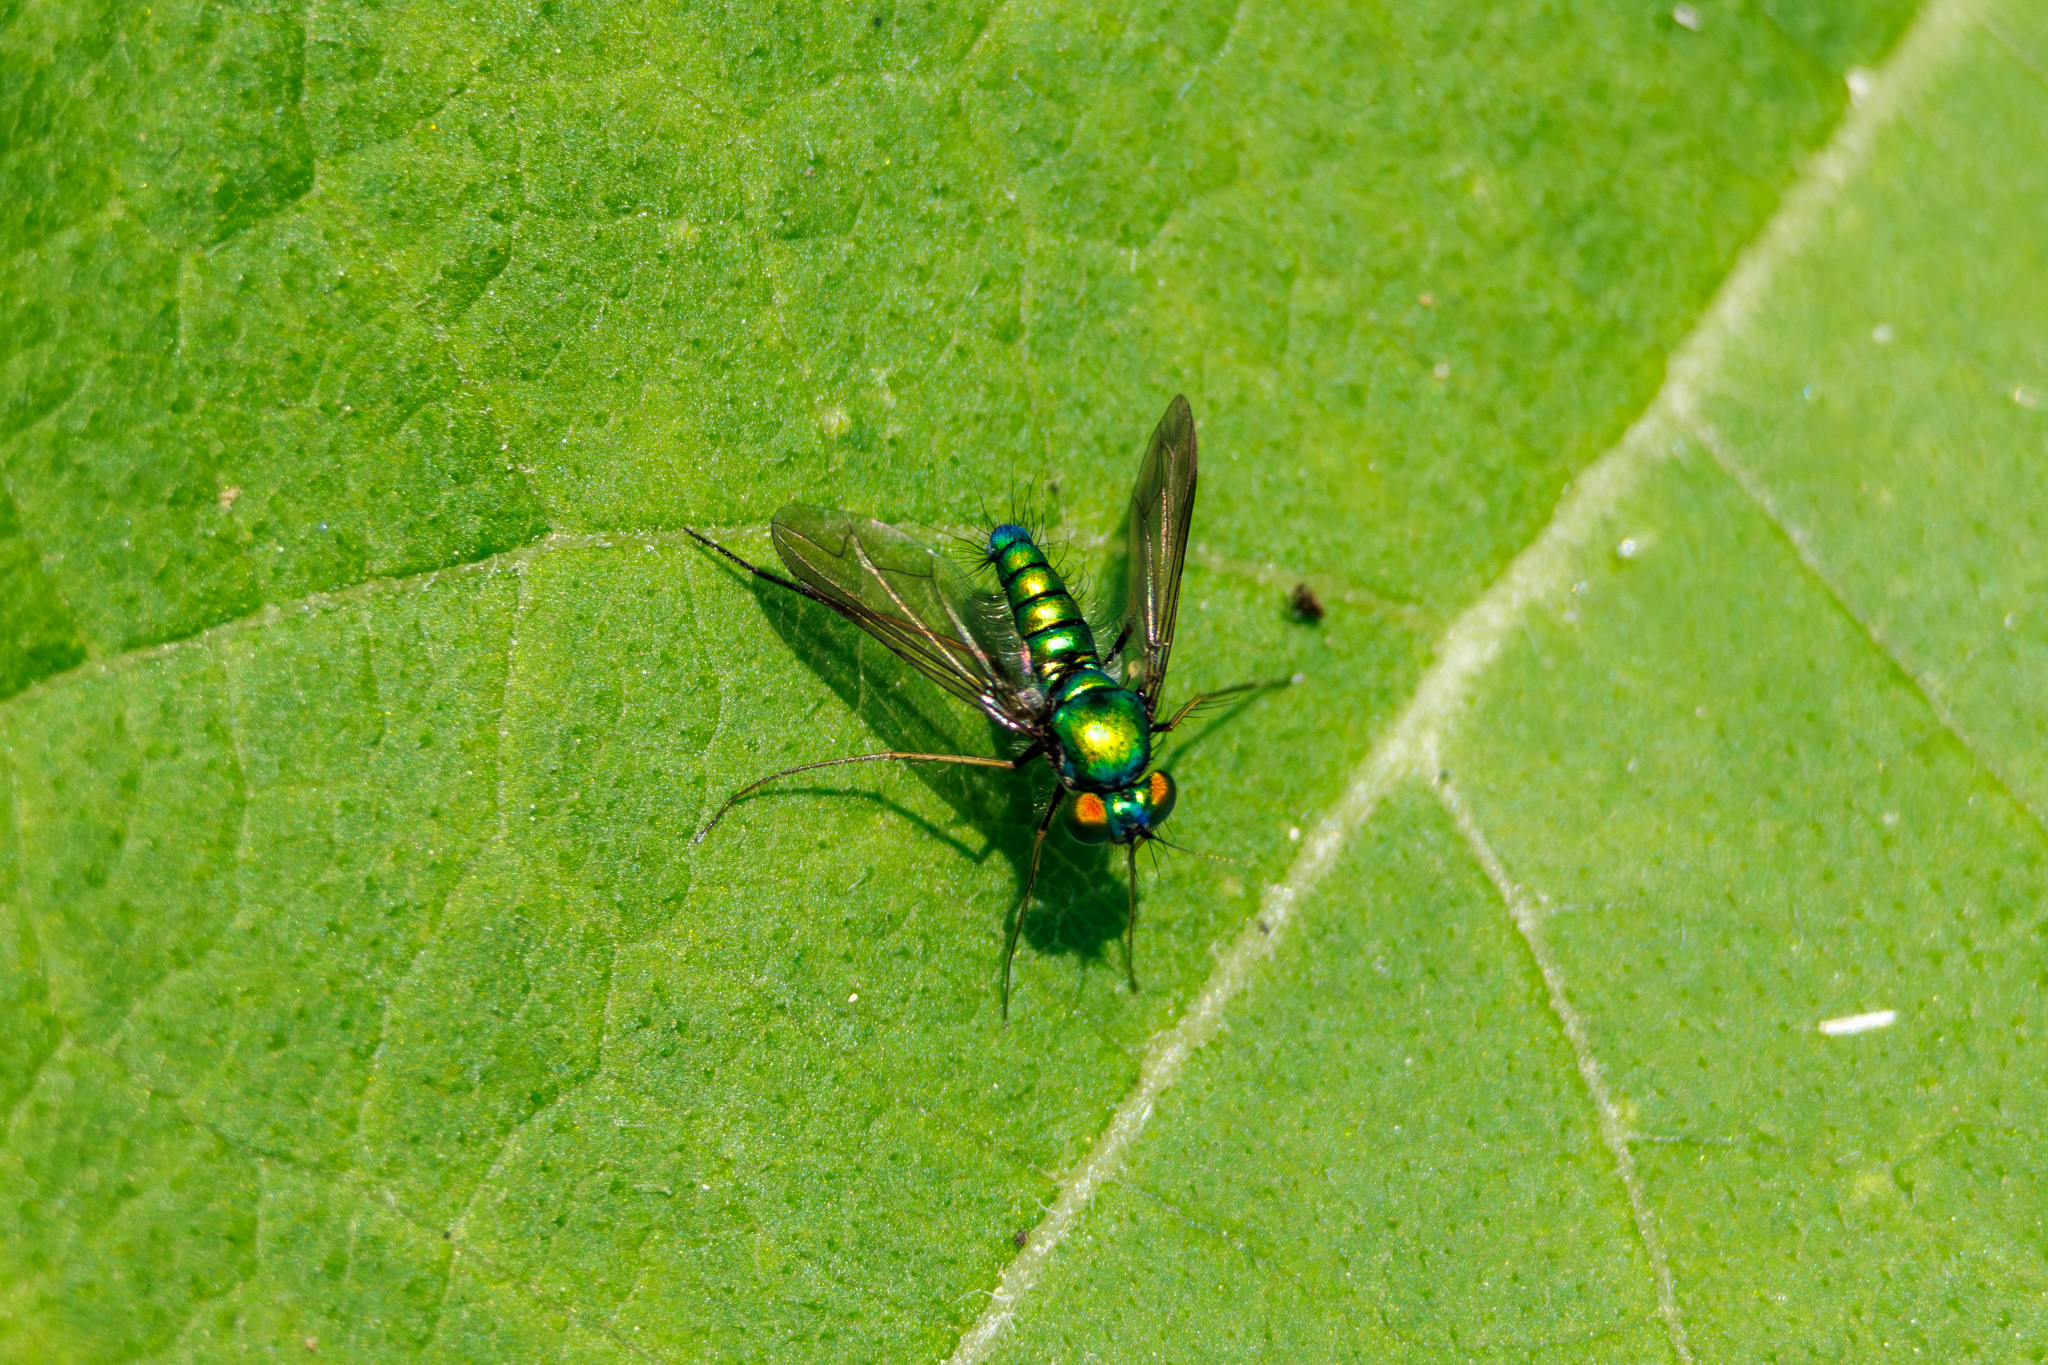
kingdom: Animalia
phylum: Arthropoda
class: Insecta
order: Diptera
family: Dolichopodidae
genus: Condylostylus
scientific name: Condylostylus comatus
